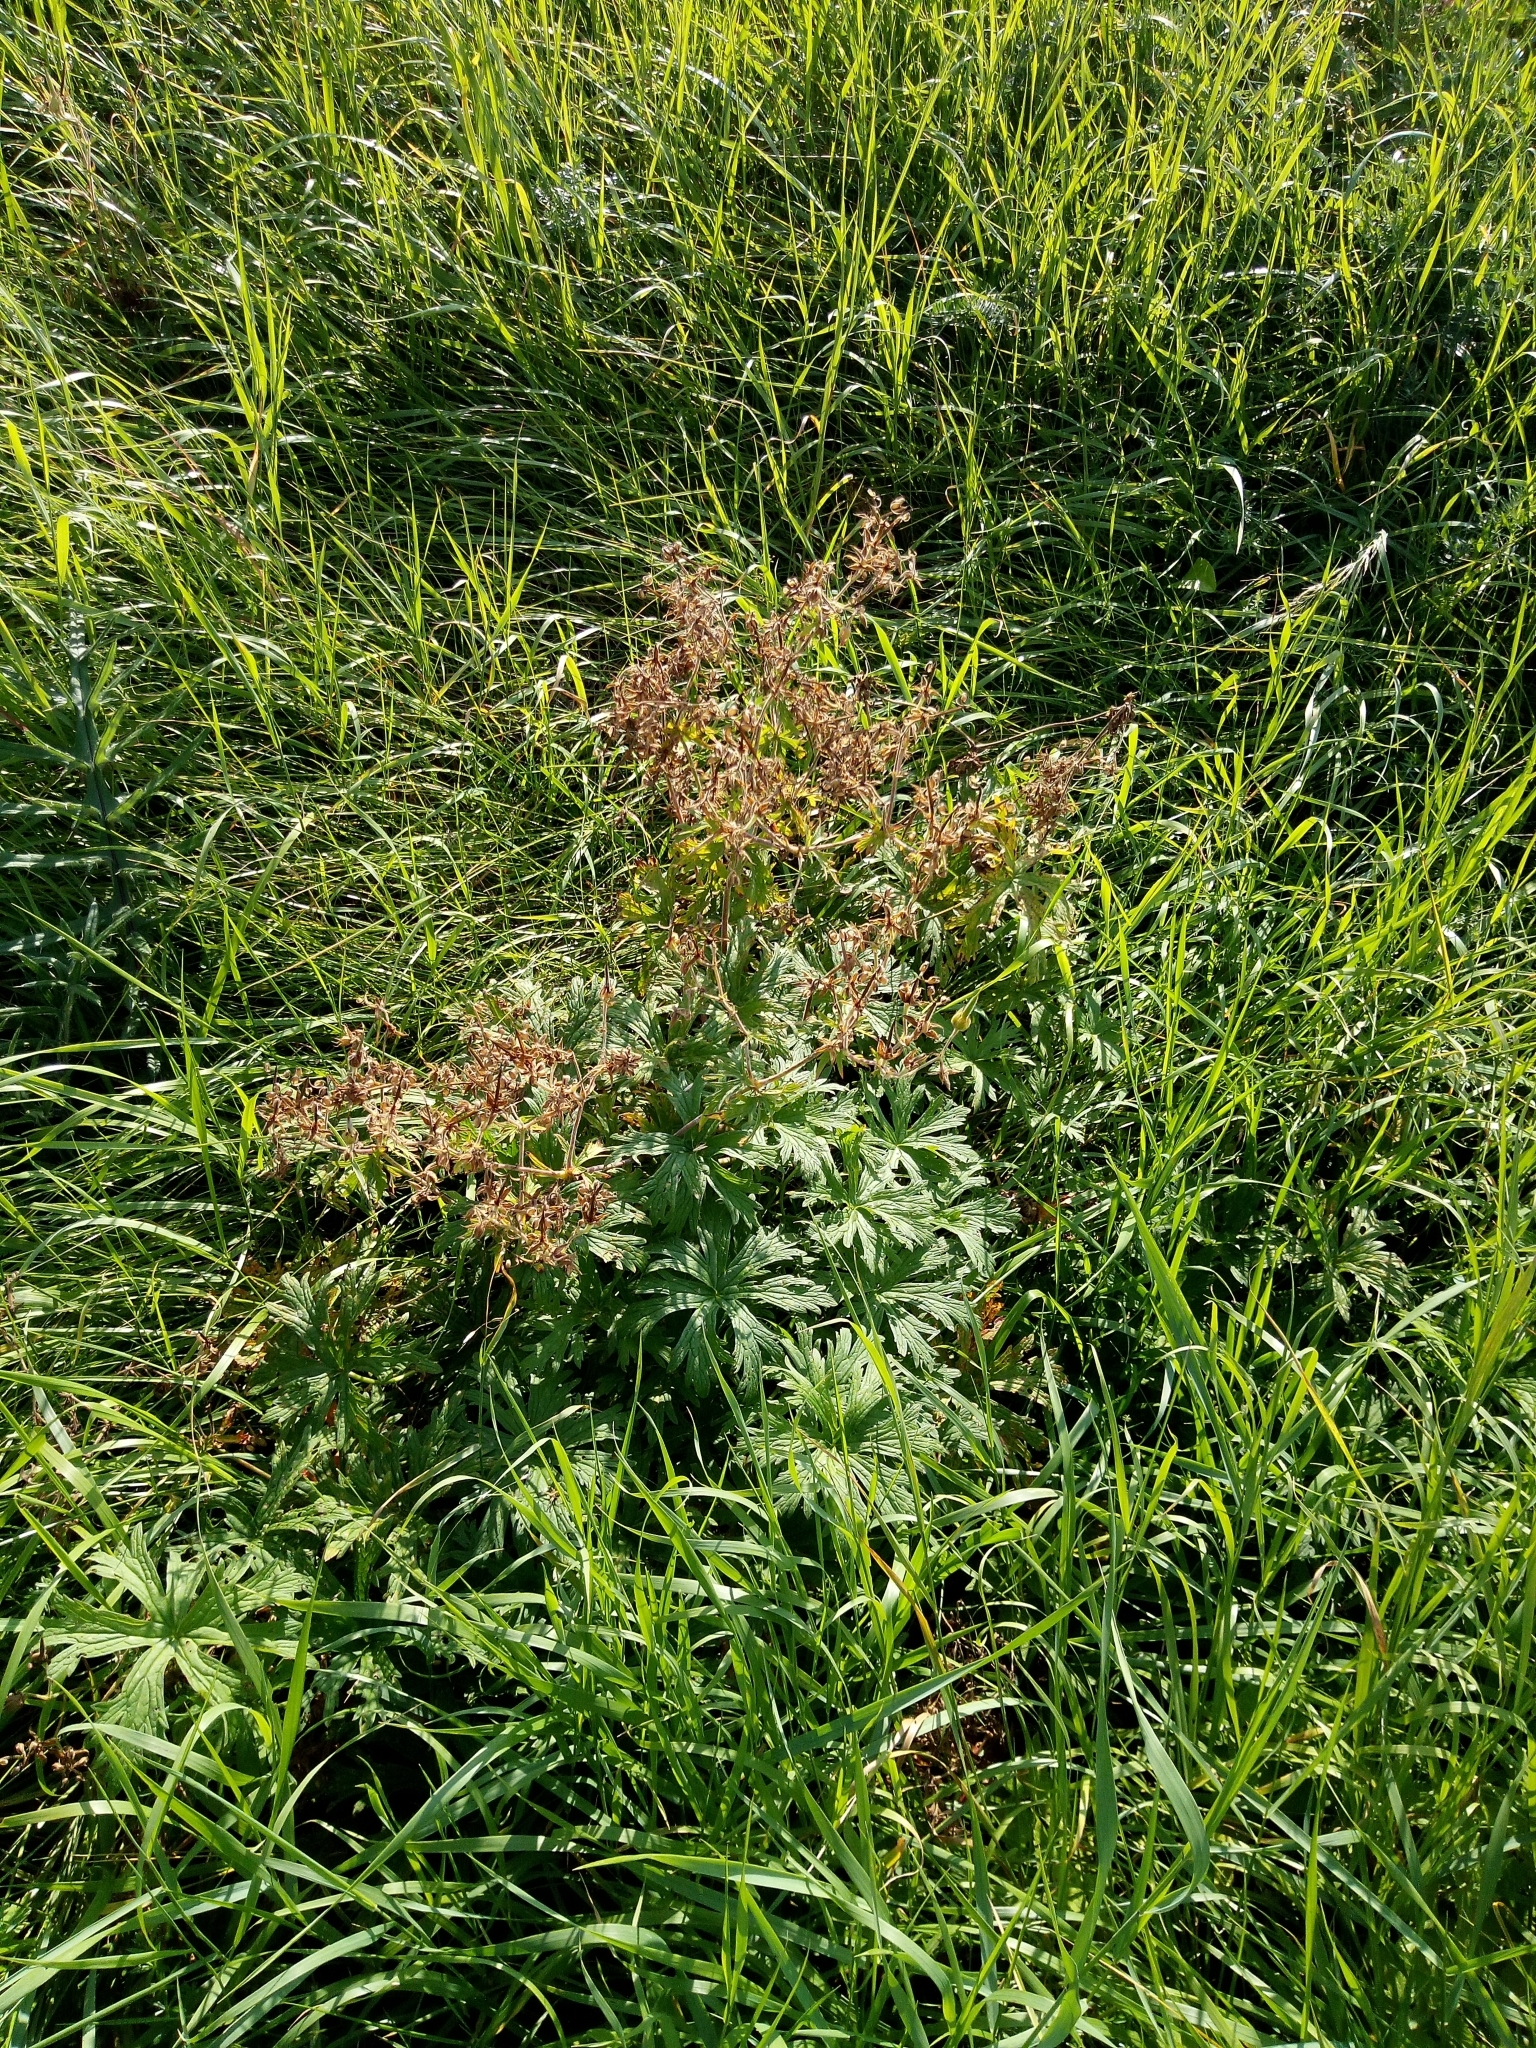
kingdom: Plantae
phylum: Tracheophyta
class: Magnoliopsida
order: Geraniales
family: Geraniaceae
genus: Geranium
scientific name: Geranium pratense
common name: Meadow crane's-bill
